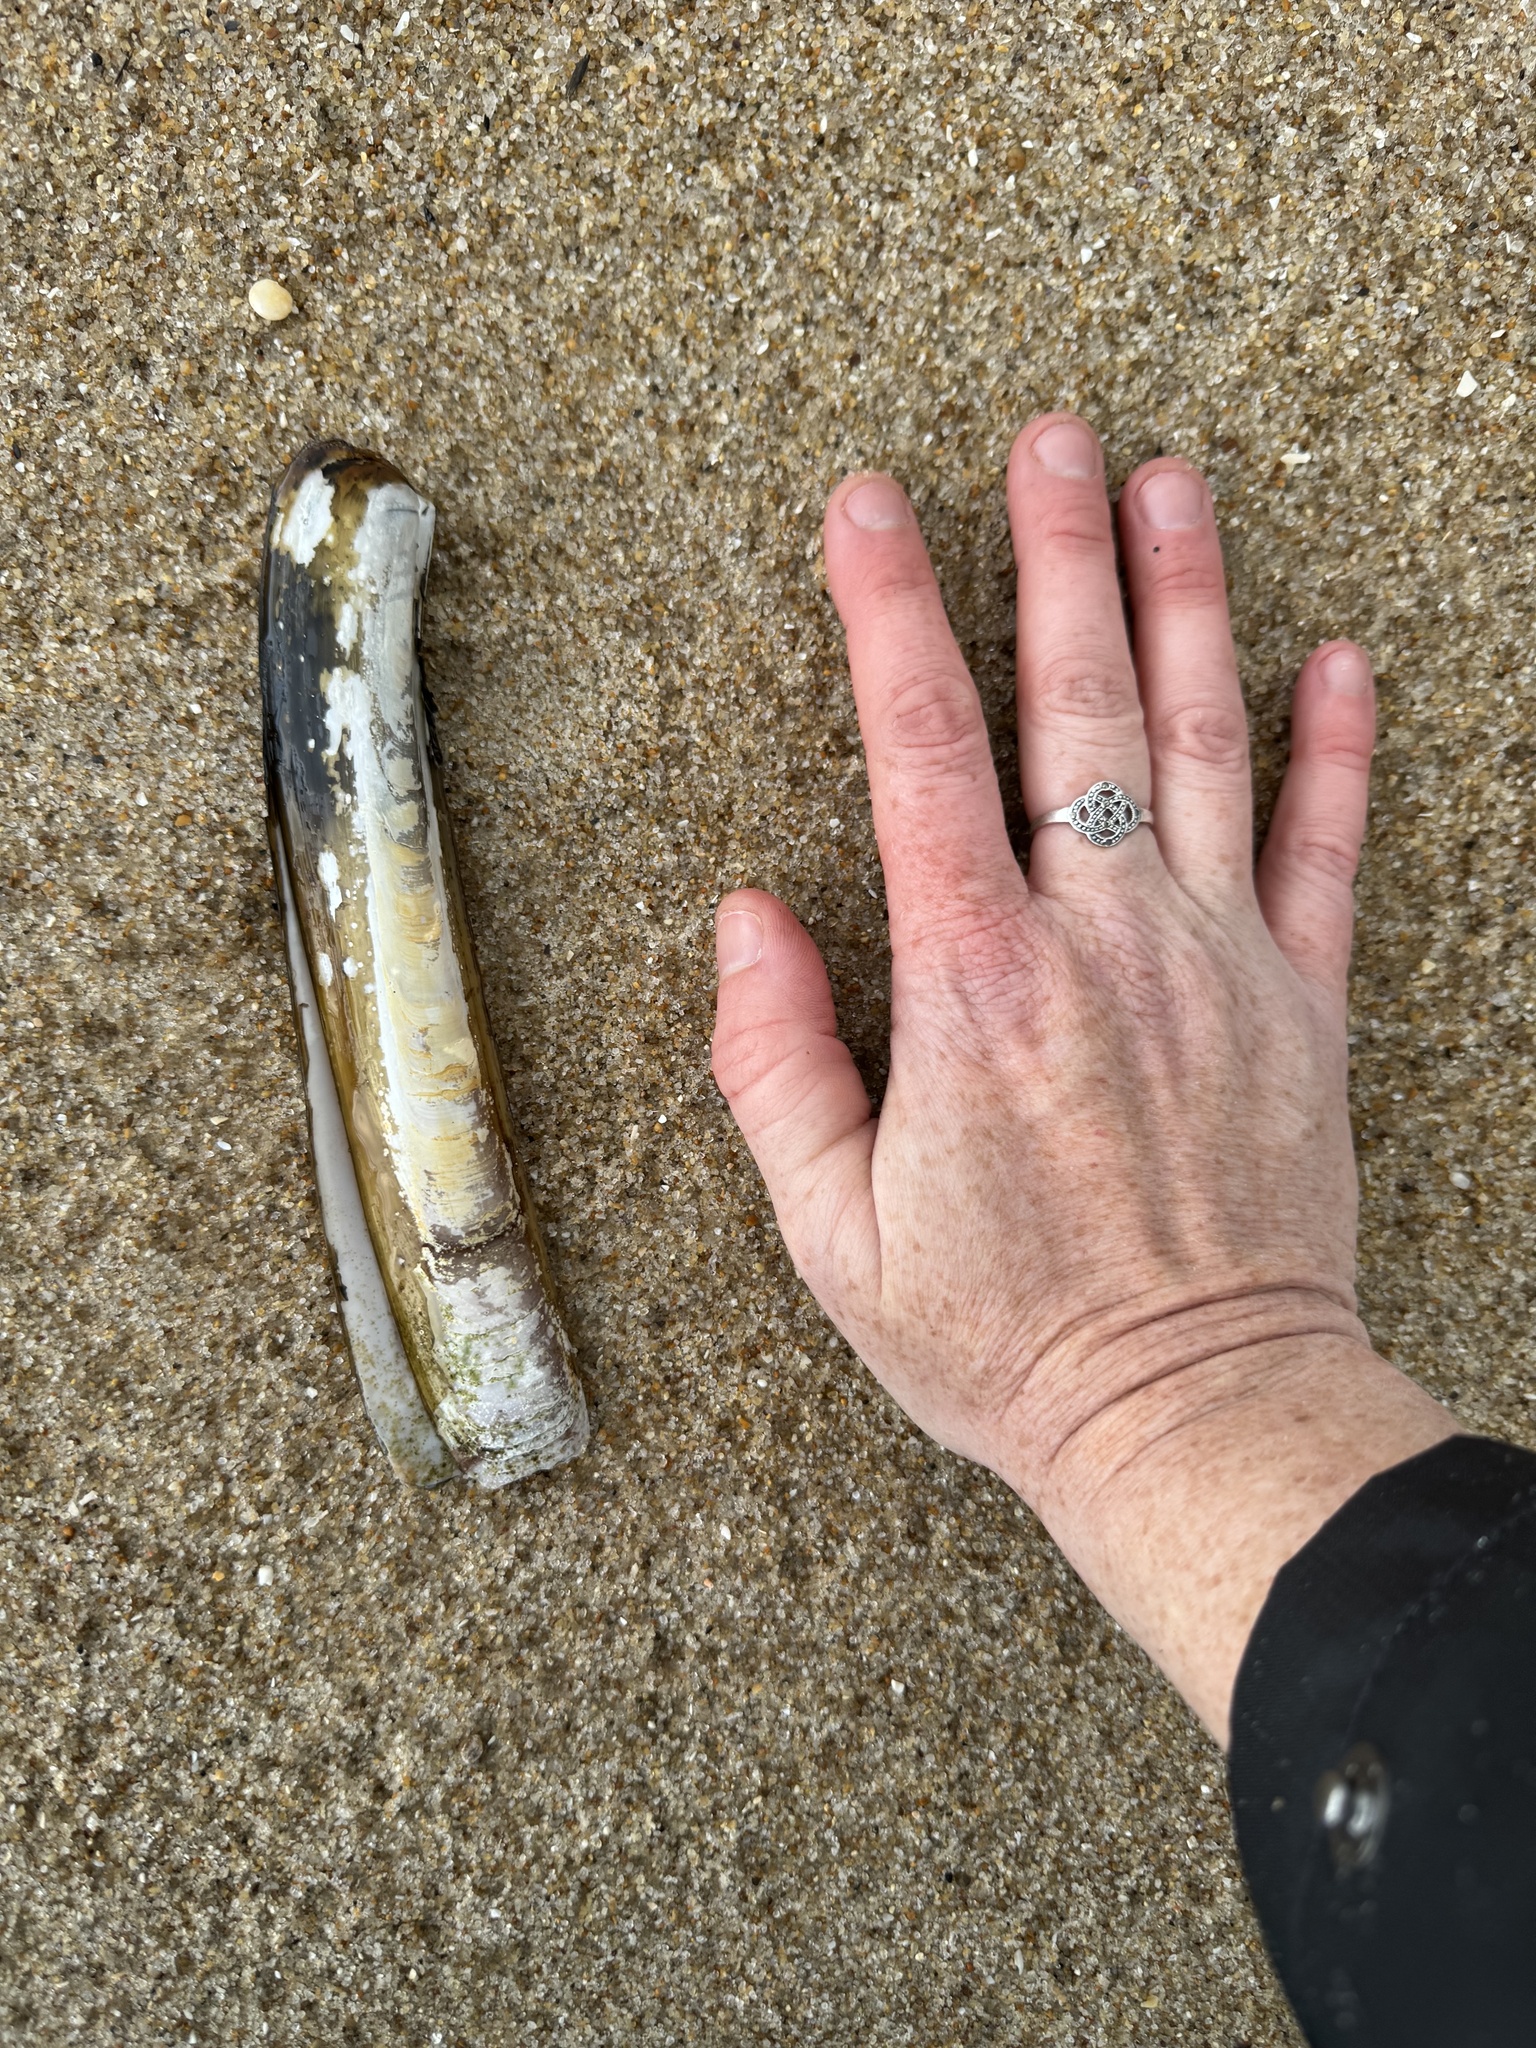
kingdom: Animalia
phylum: Mollusca
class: Bivalvia
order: Adapedonta
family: Pharidae
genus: Ensis
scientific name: Ensis leei
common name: American jack knife clam
